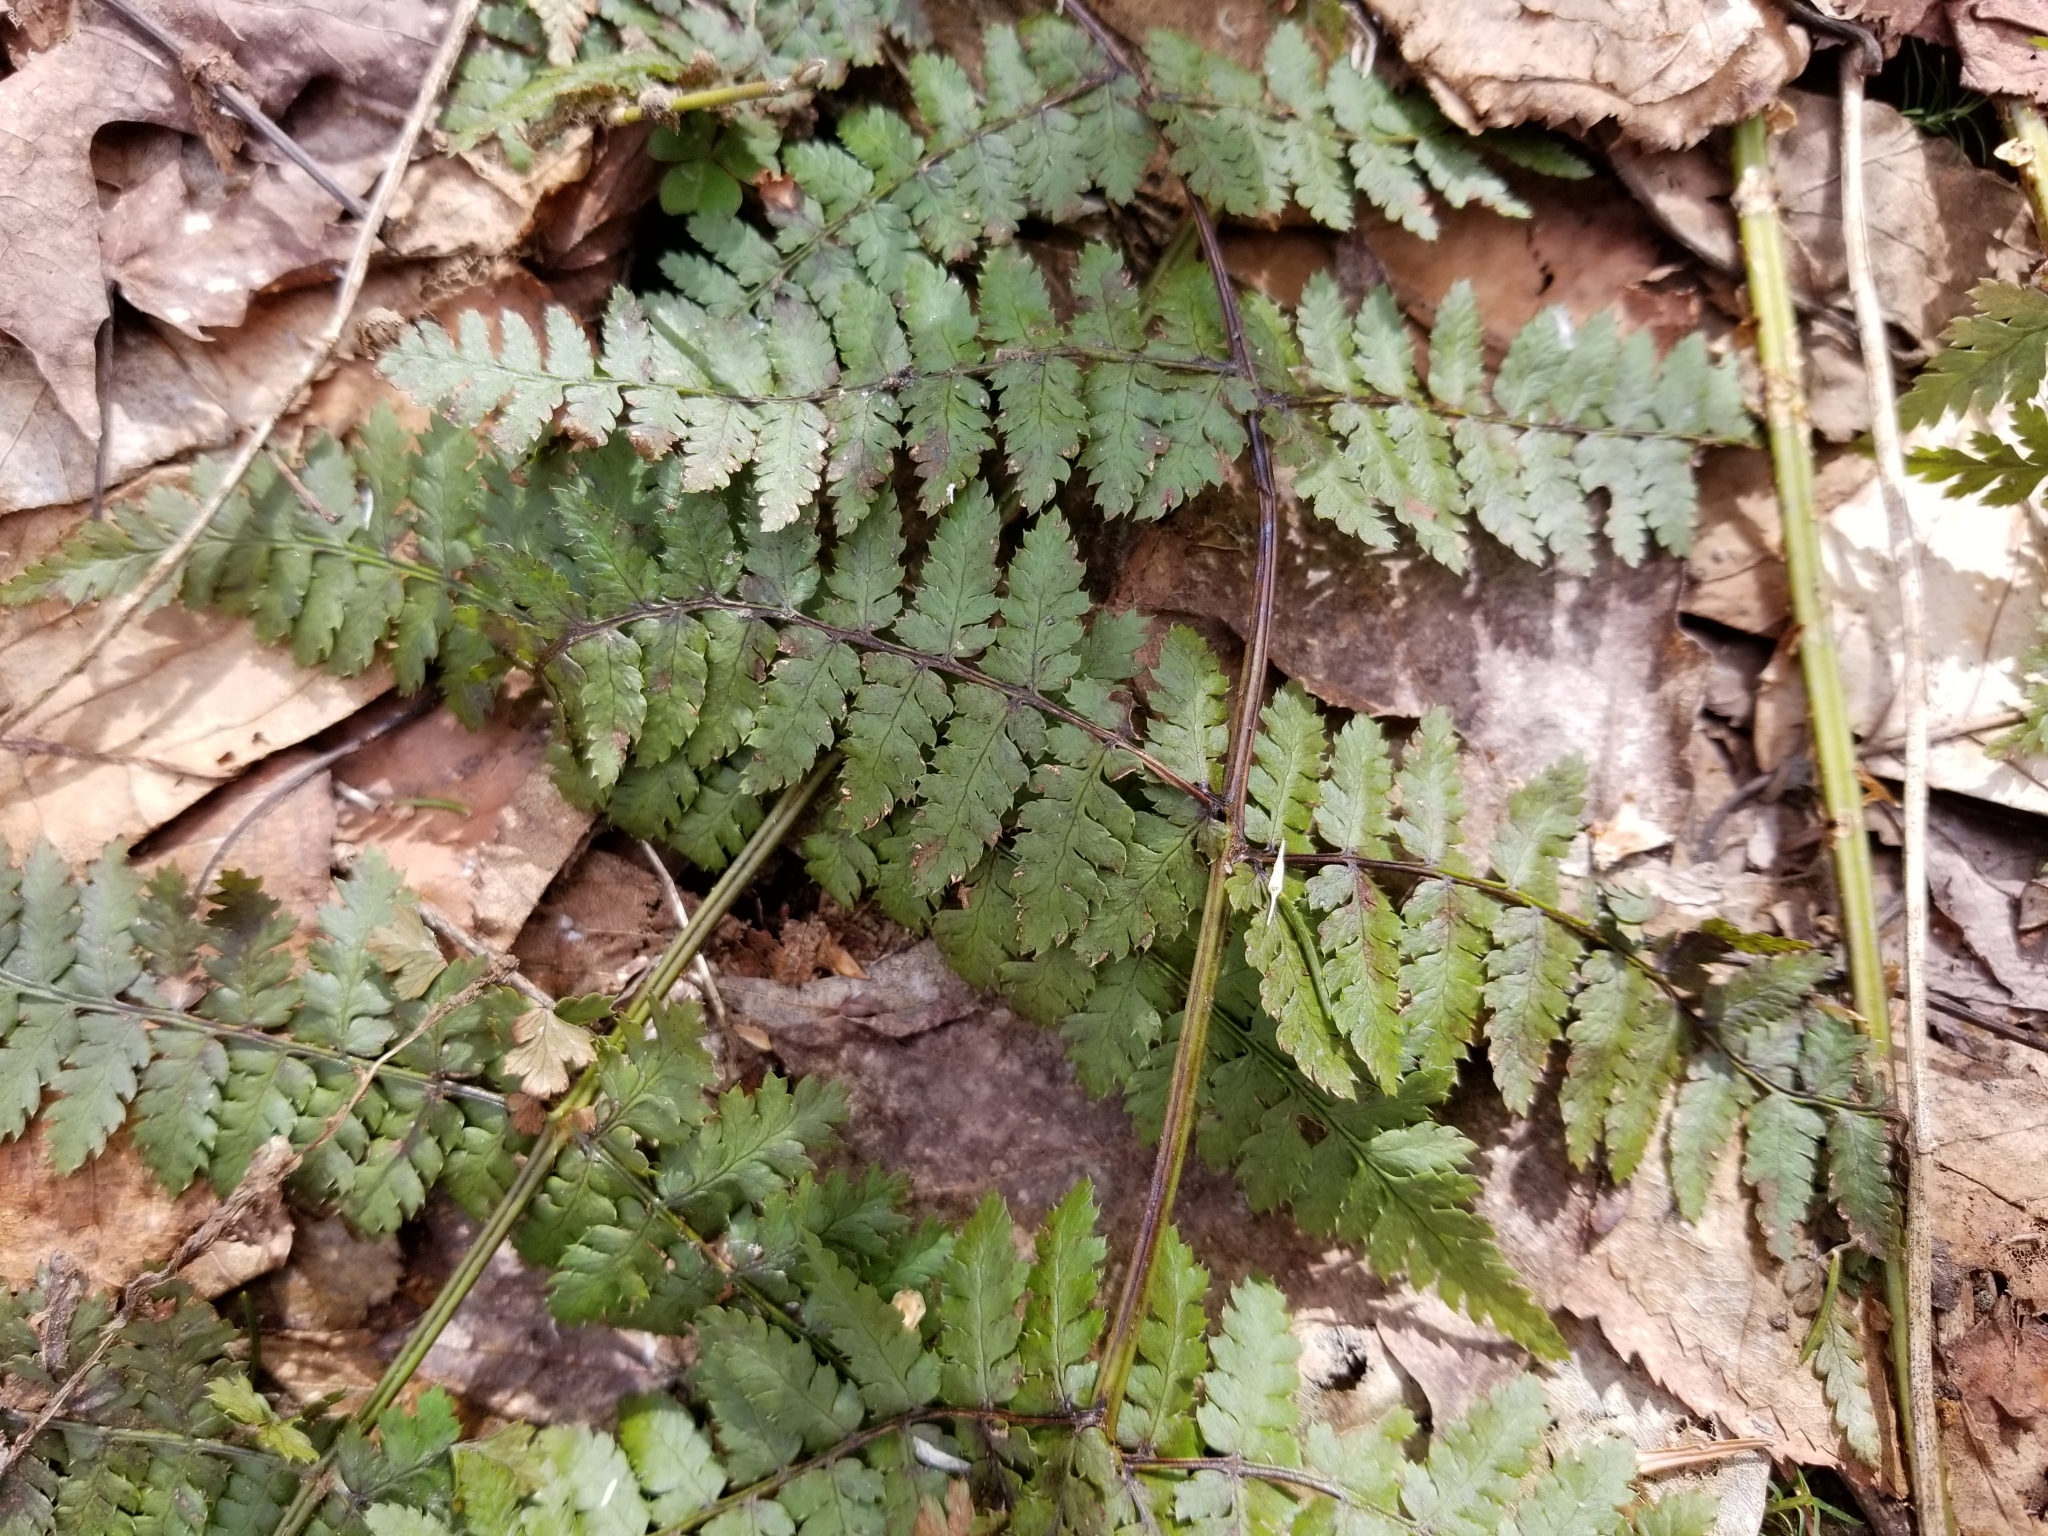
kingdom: Plantae
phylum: Tracheophyta
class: Polypodiopsida
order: Polypodiales
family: Dryopteridaceae
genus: Dryopteris
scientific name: Dryopteris intermedia
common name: Evergreen wood fern
